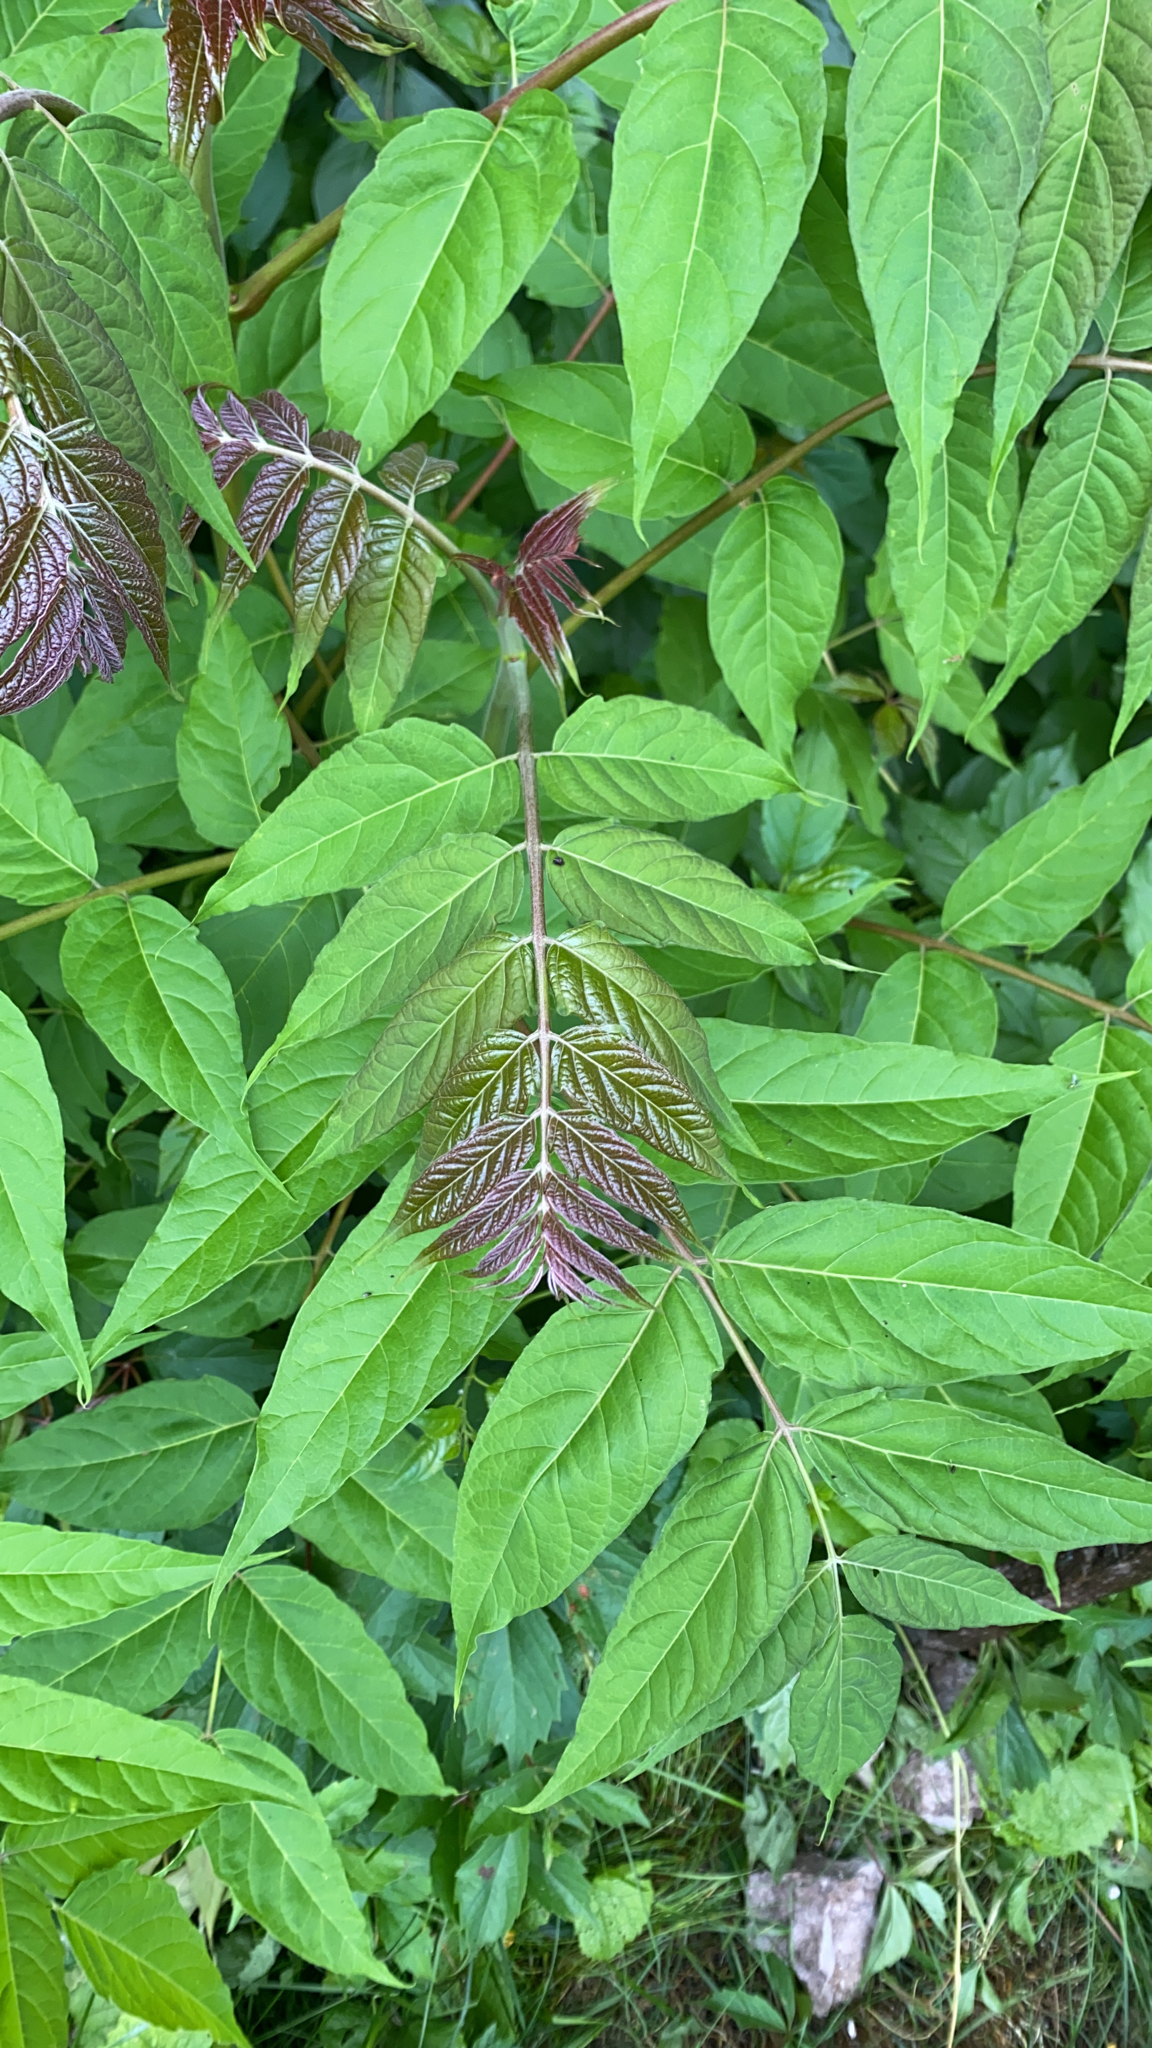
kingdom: Plantae
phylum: Tracheophyta
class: Magnoliopsida
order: Sapindales
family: Simaroubaceae
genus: Ailanthus
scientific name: Ailanthus altissima
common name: Tree-of-heaven
